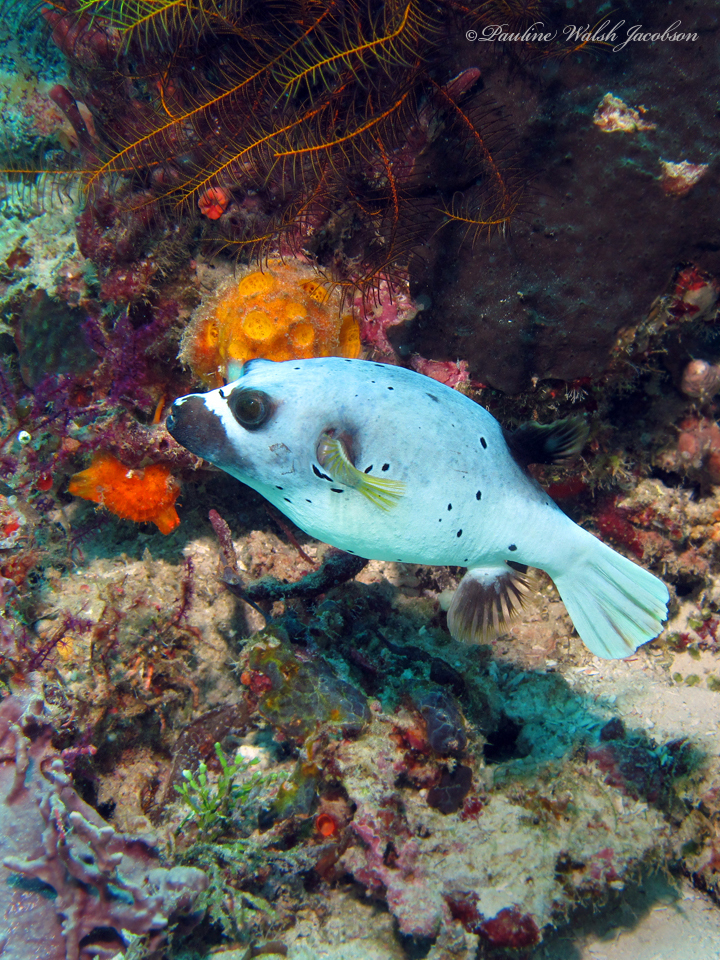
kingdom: Animalia
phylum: Chordata
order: Tetraodontiformes
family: Tetraodontidae
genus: Arothron
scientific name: Arothron nigropunctatus
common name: Black spotted blow fish
